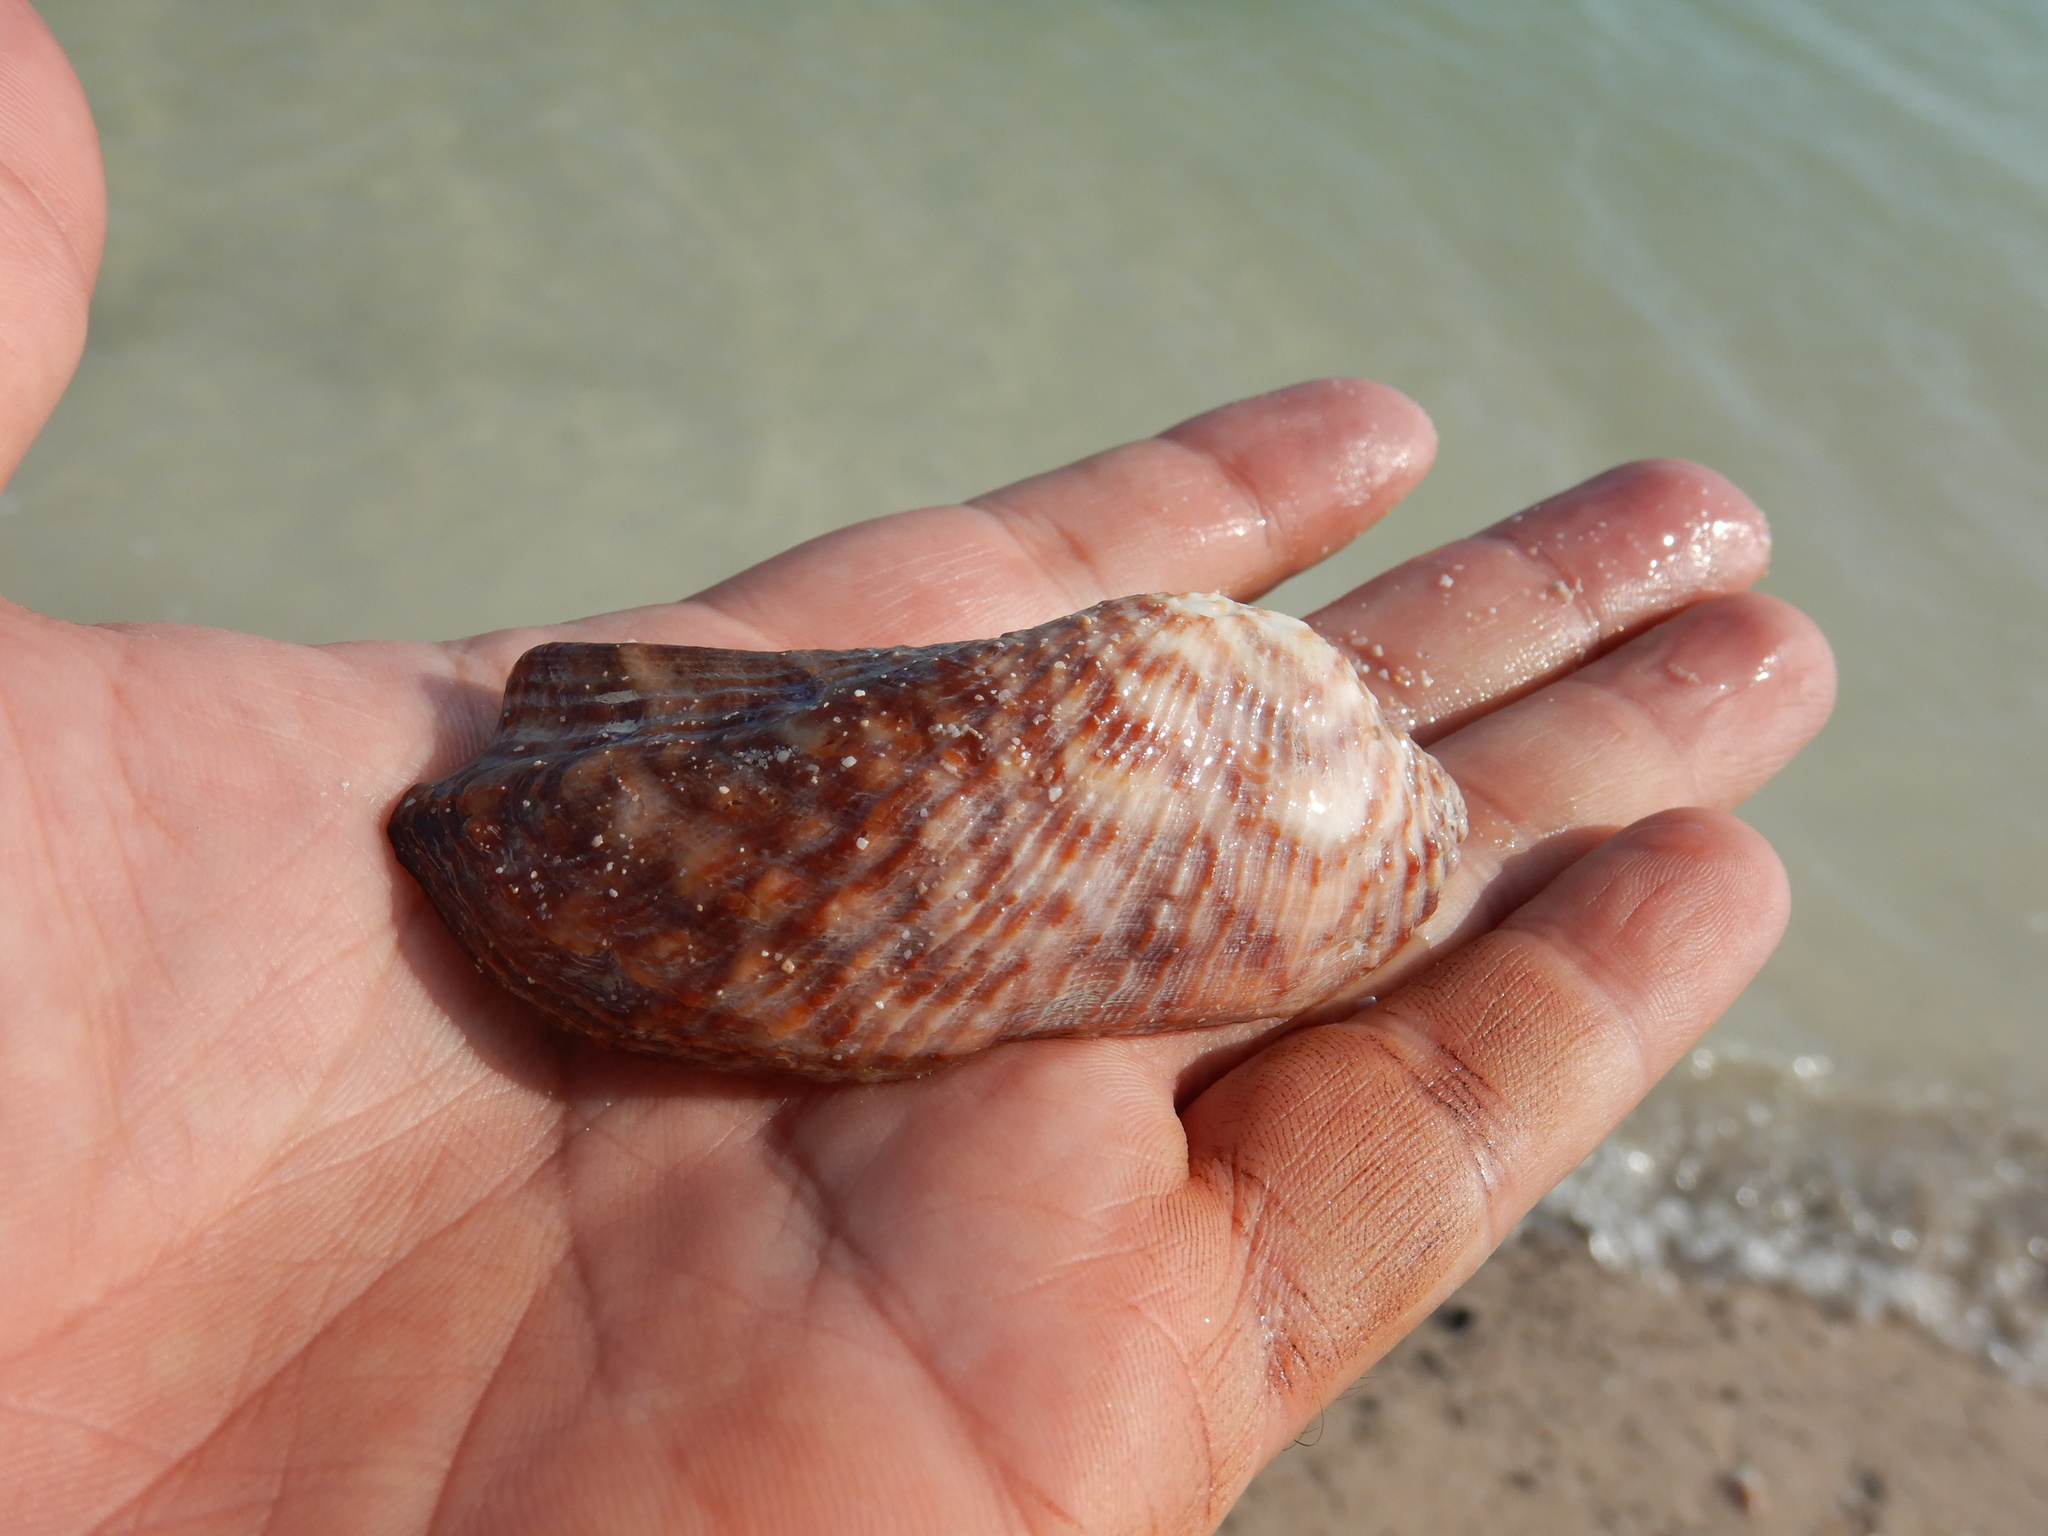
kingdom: Animalia
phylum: Mollusca
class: Bivalvia
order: Arcida
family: Arcidae
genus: Arca
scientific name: Arca zebra
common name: Atlantic turkey wing
